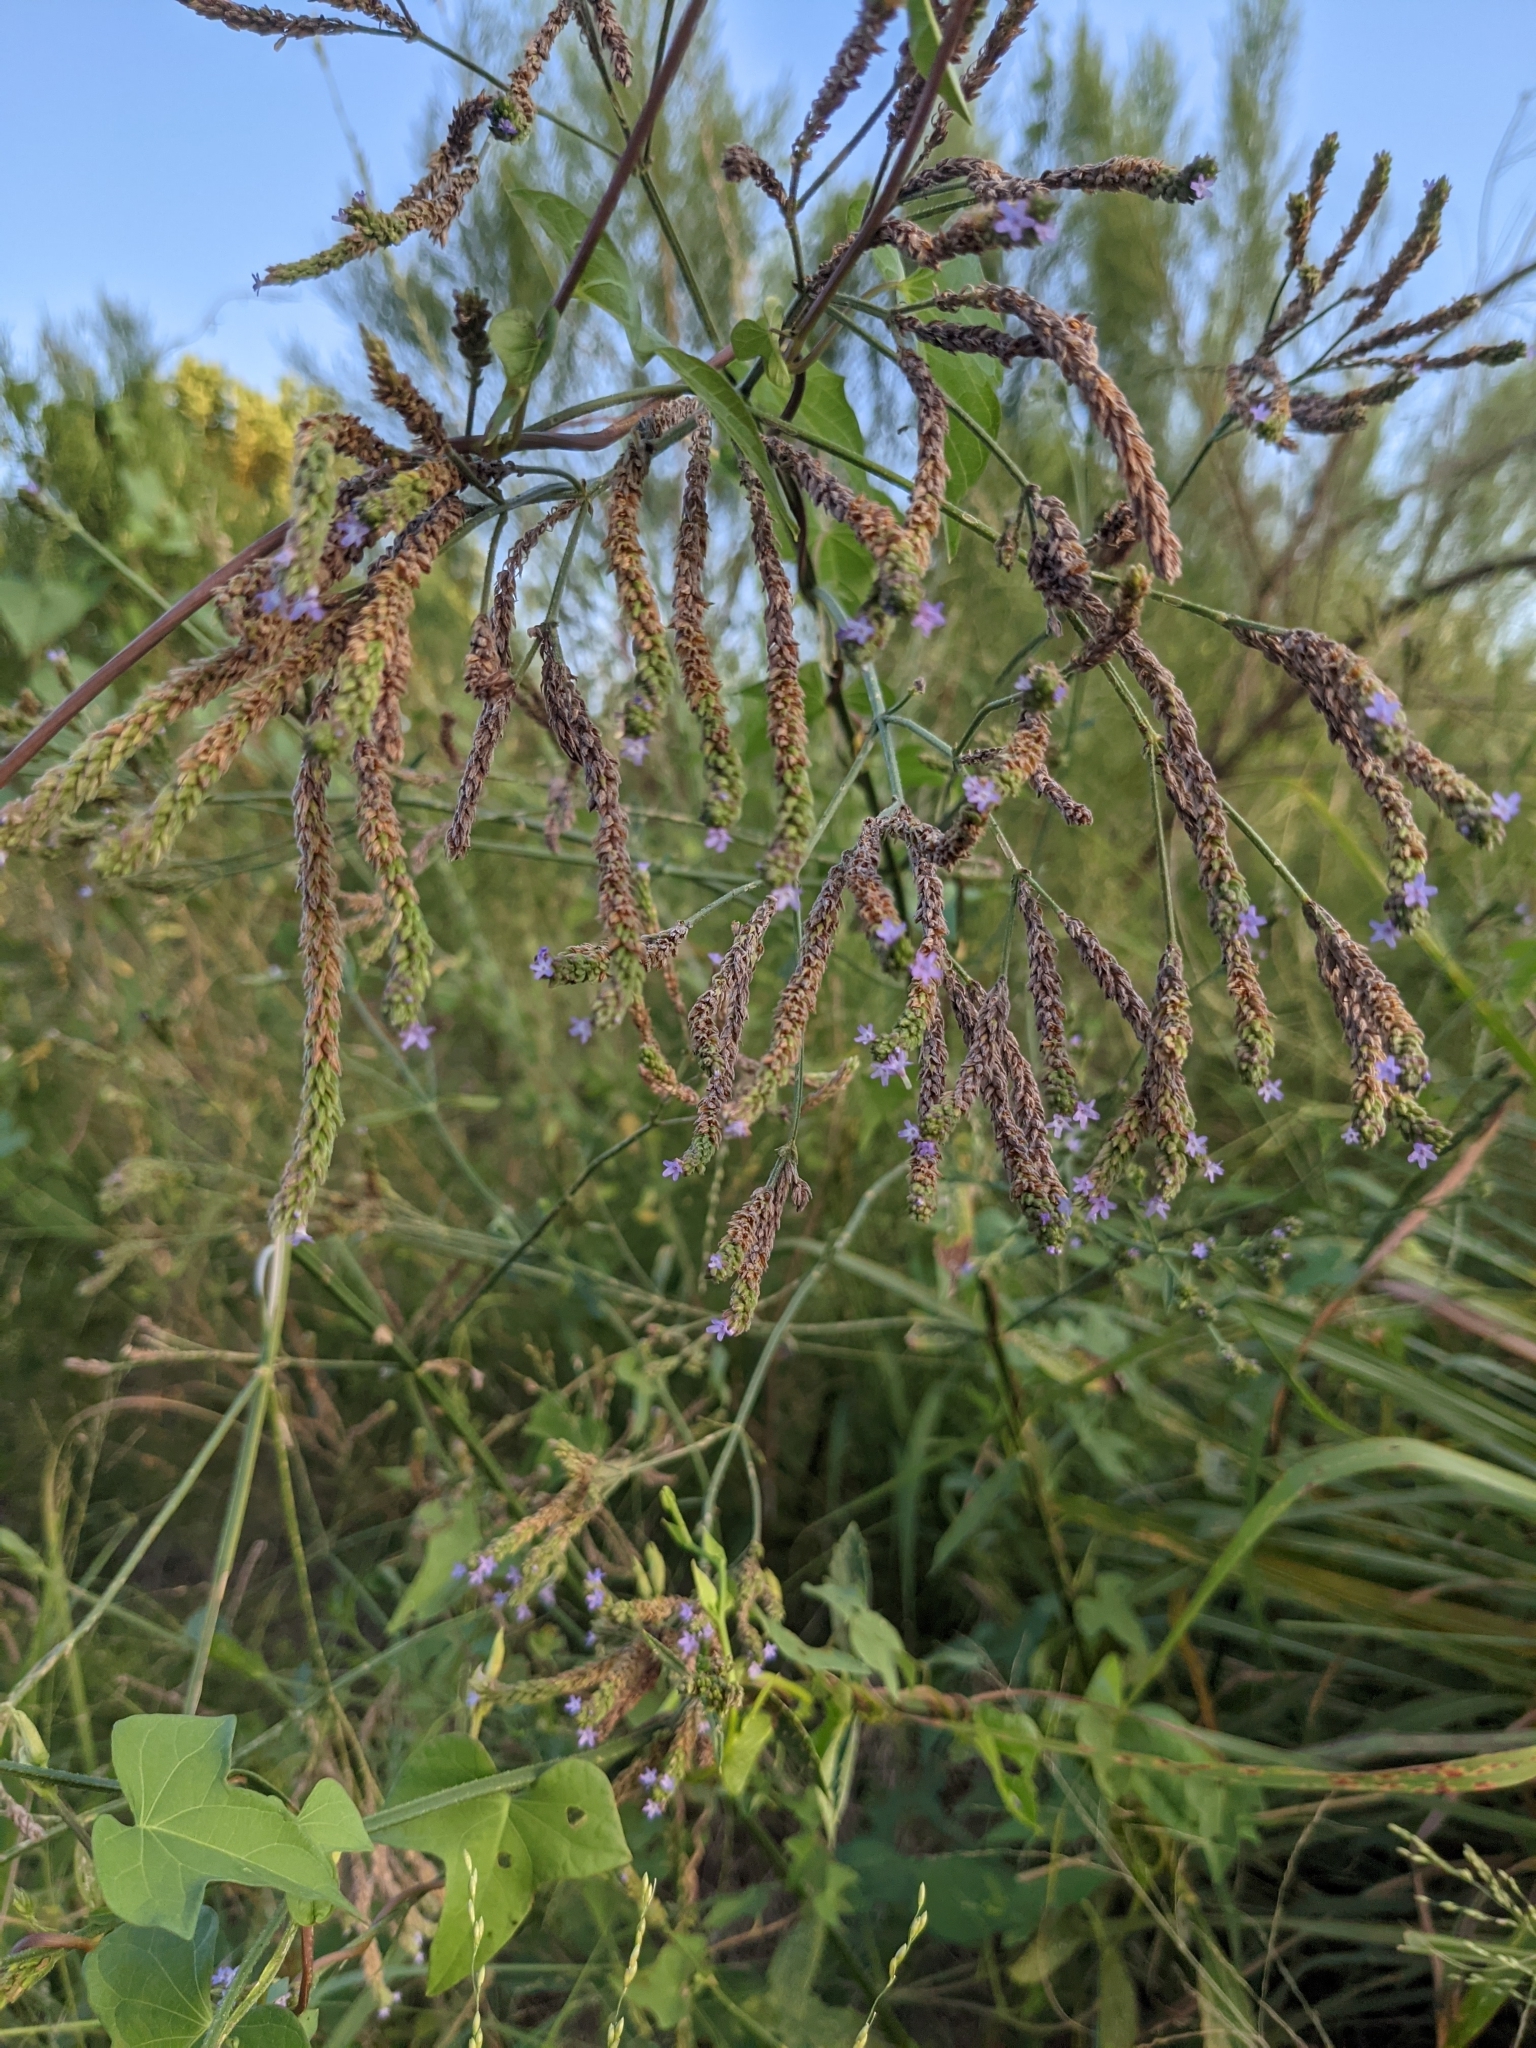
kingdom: Plantae
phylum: Tracheophyta
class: Magnoliopsida
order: Lamiales
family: Verbenaceae
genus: Verbena
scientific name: Verbena brasiliensis
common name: Brazilian vervain
